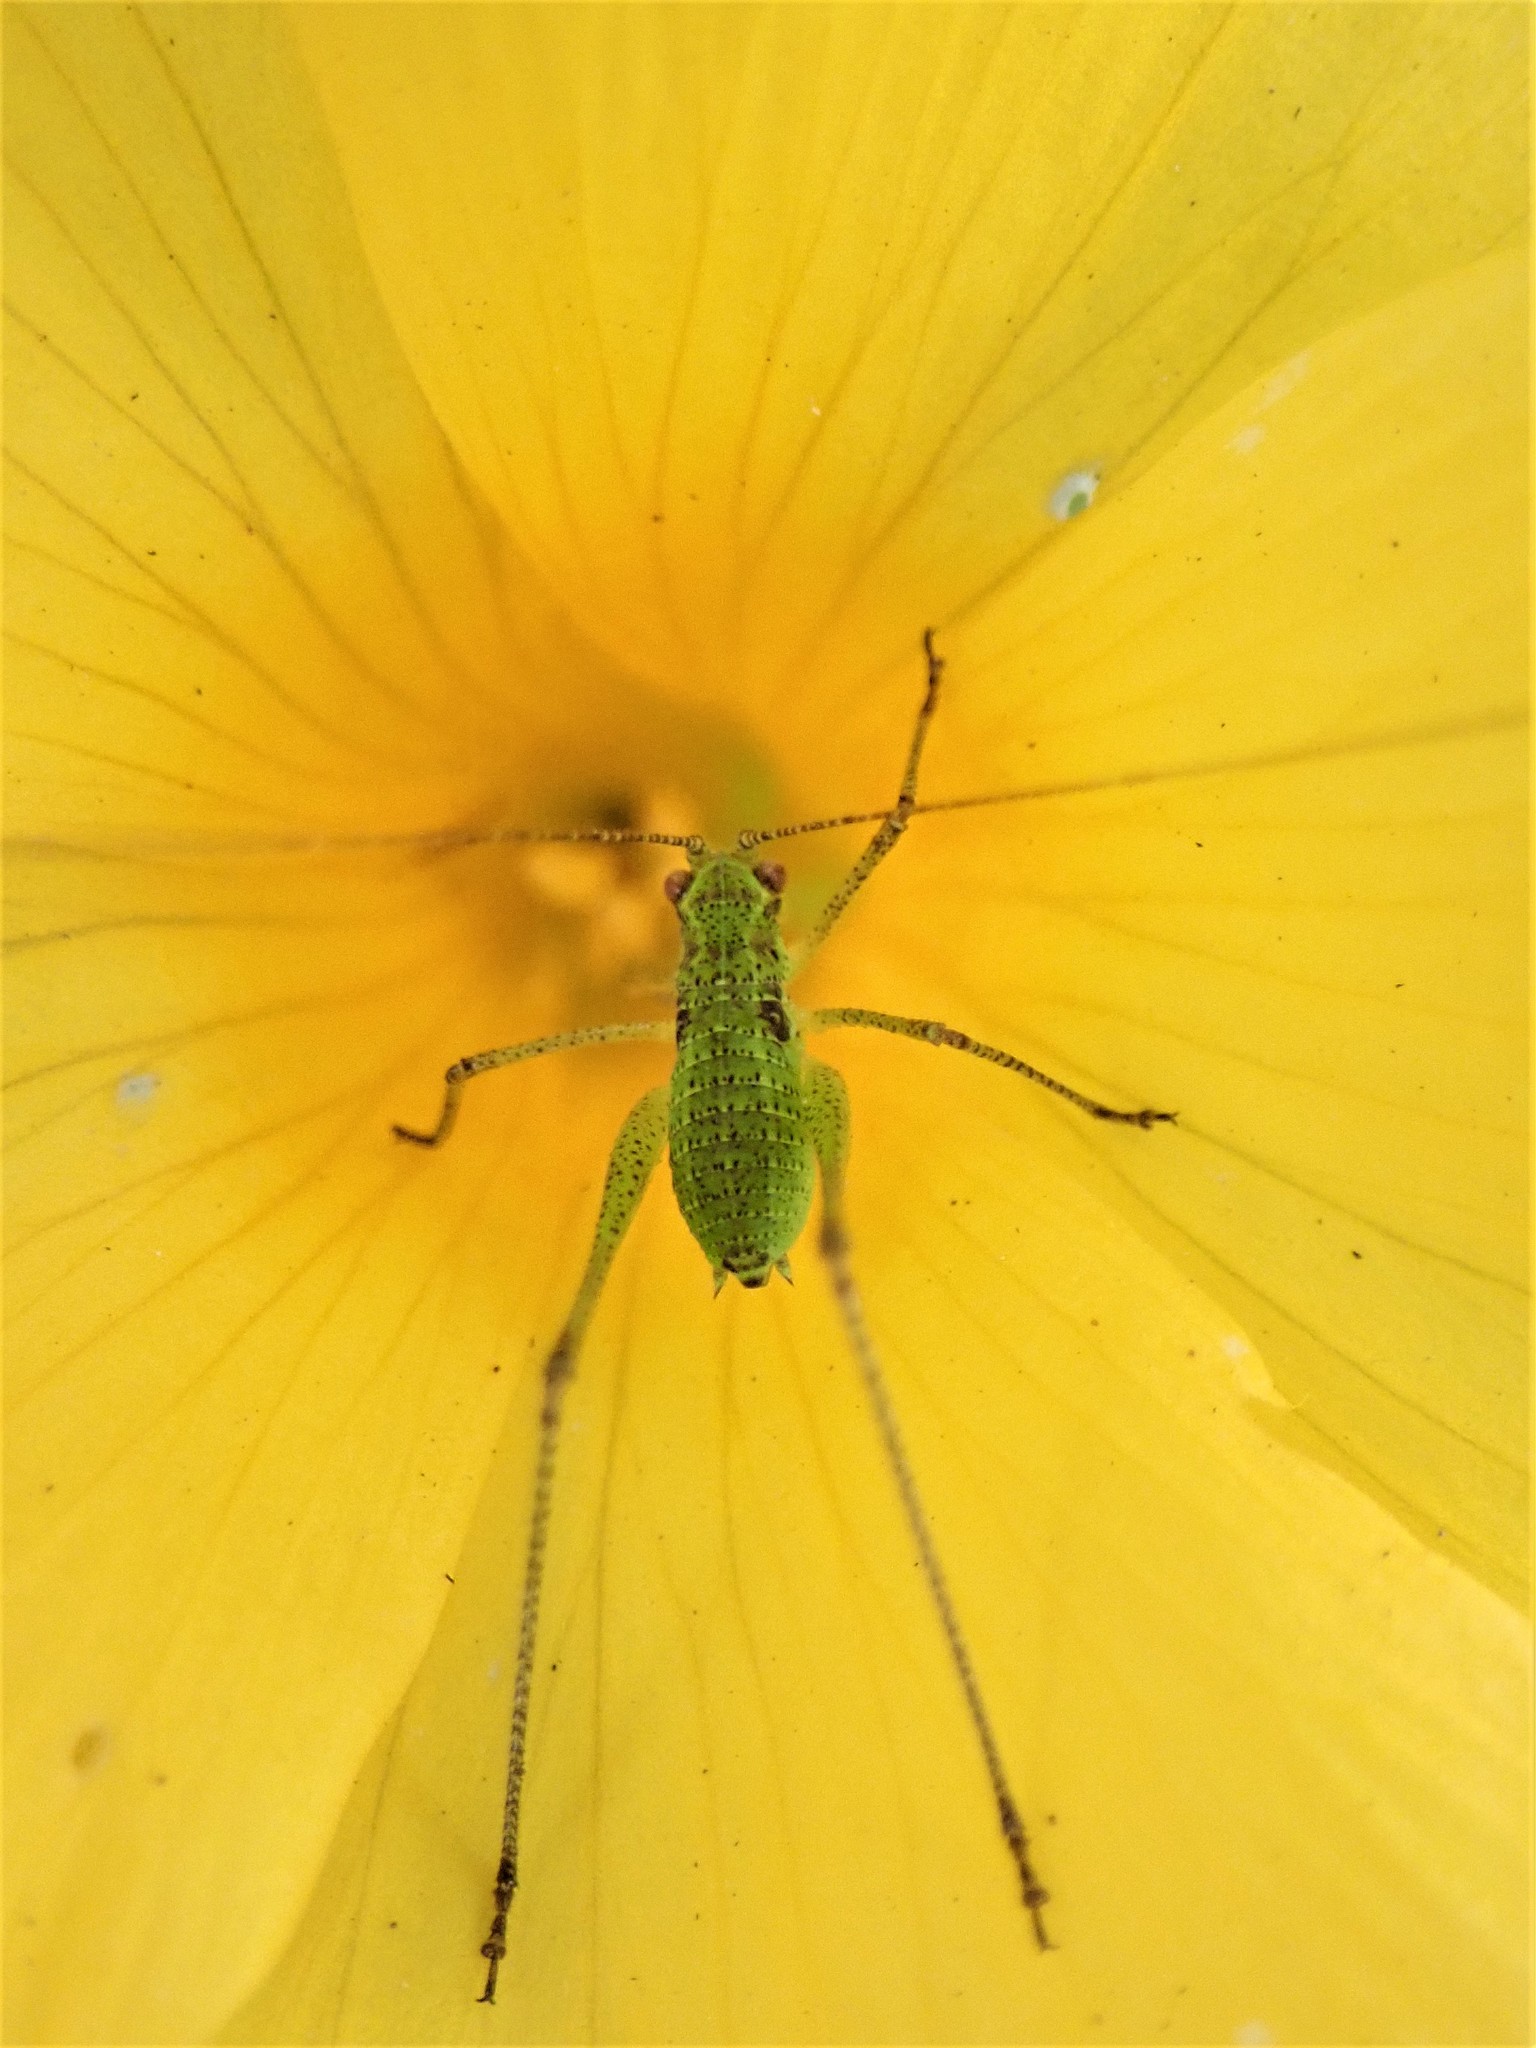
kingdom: Animalia
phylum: Arthropoda
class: Insecta
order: Orthoptera
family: Tettigoniidae
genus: Phaneroptera
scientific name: Phaneroptera nana
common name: Southern sickle bush-cricket
